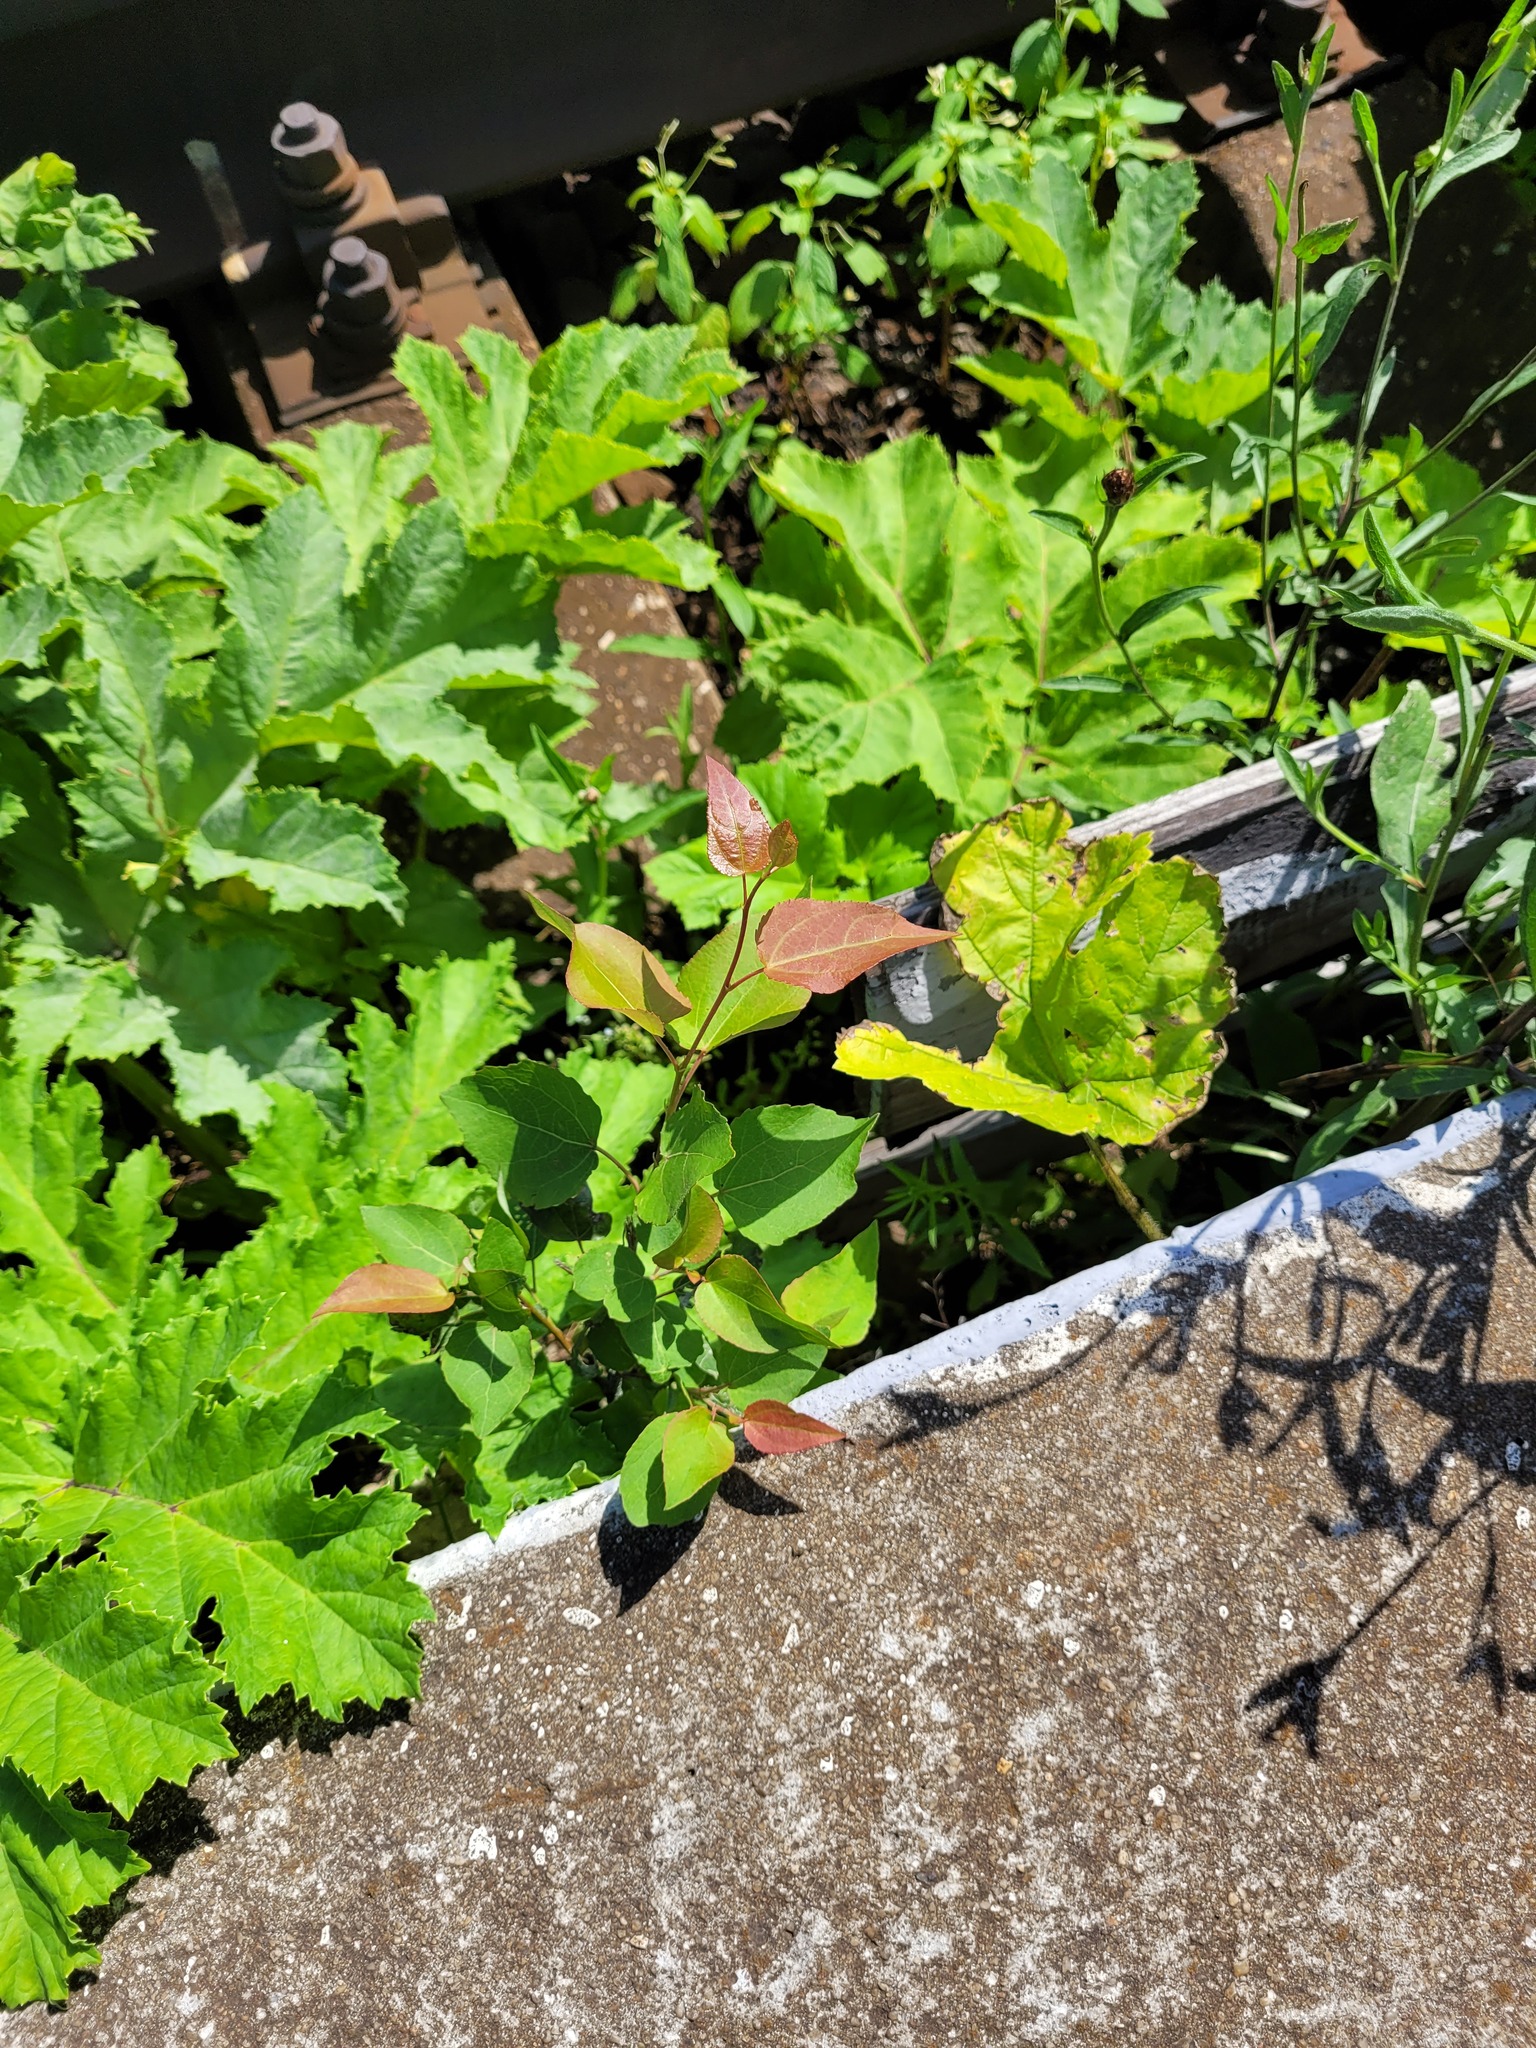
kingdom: Plantae
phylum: Tracheophyta
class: Magnoliopsida
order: Malpighiales
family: Salicaceae
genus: Populus
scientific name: Populus tremula
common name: European aspen
